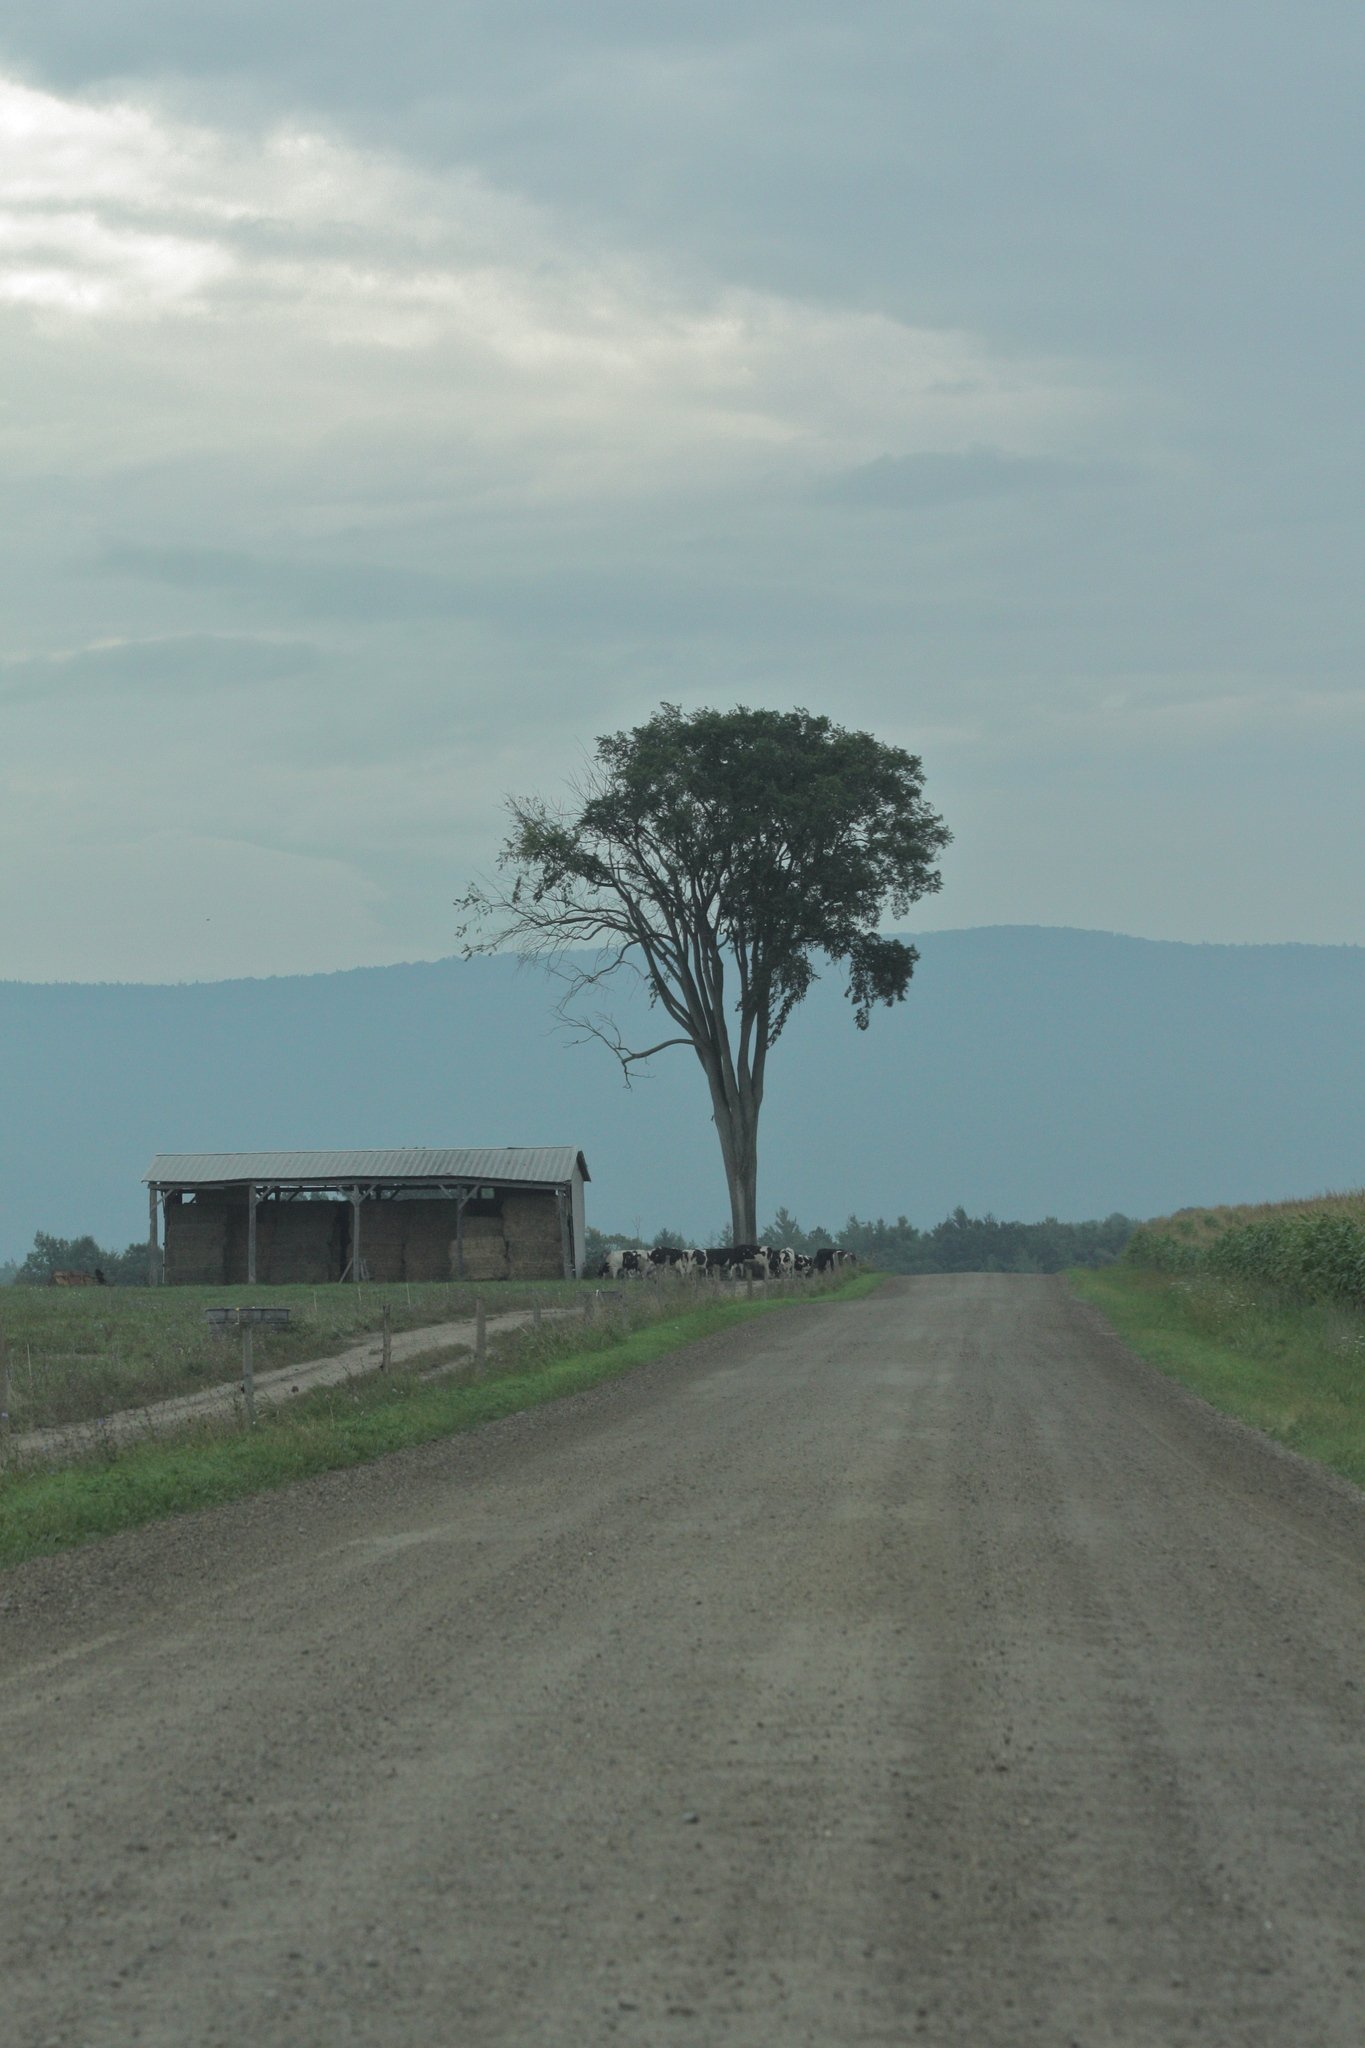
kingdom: Plantae
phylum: Tracheophyta
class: Magnoliopsida
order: Rosales
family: Ulmaceae
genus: Ulmus
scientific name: Ulmus americana
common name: American elm
